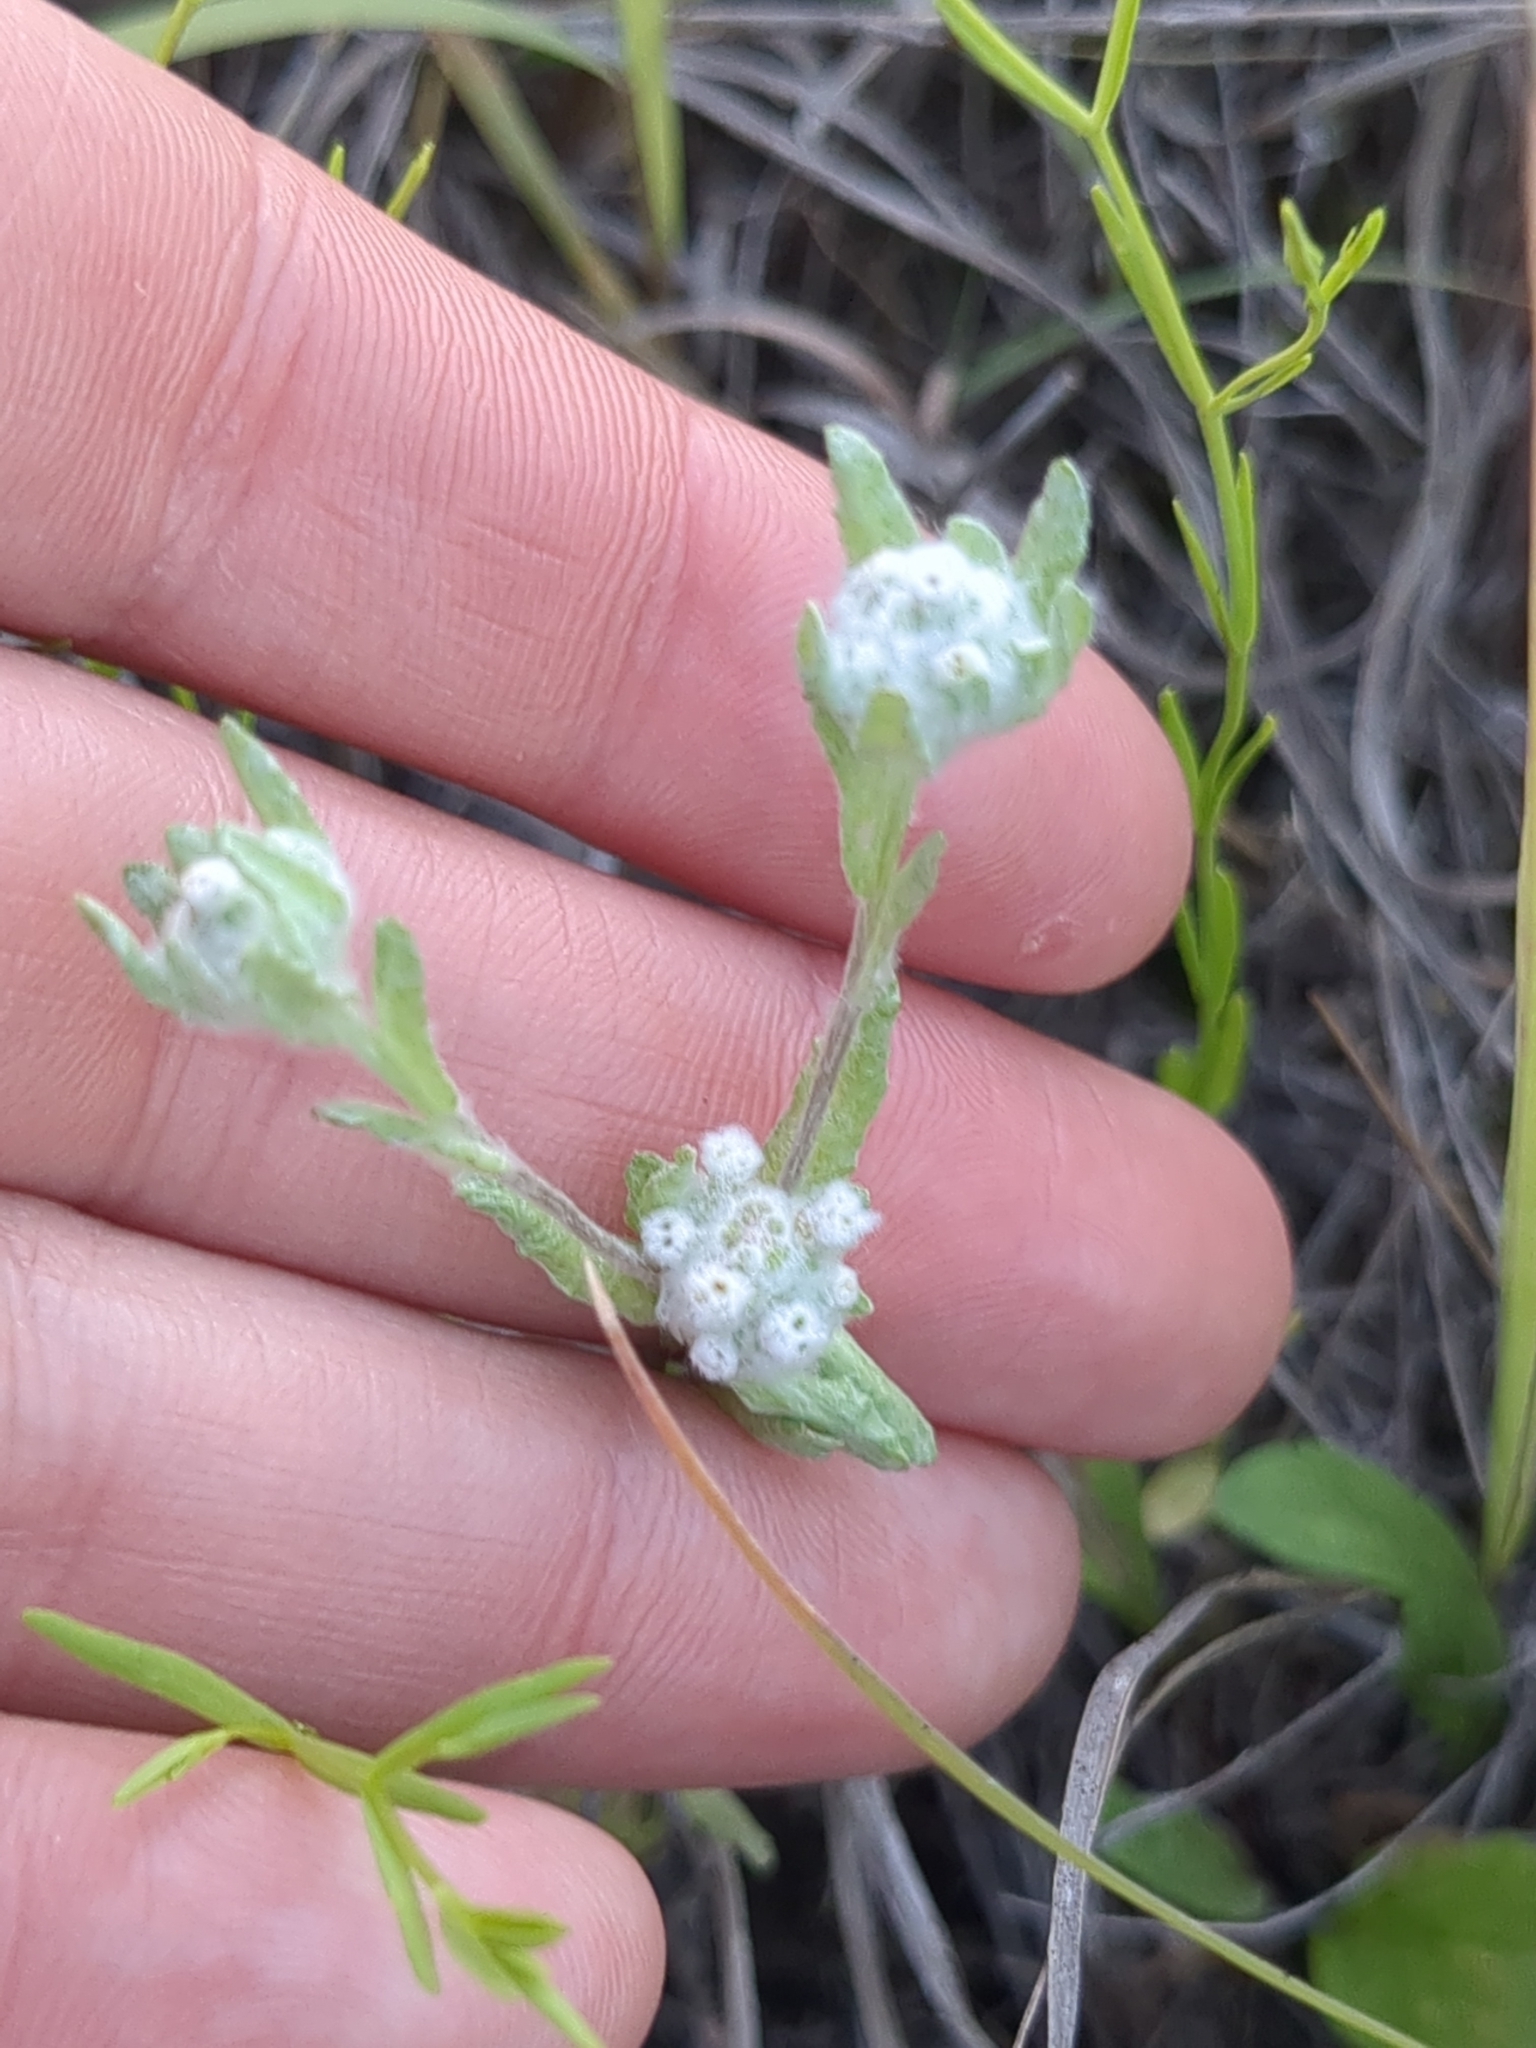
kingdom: Plantae
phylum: Tracheophyta
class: Magnoliopsida
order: Asterales
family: Asteraceae
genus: Diaperia
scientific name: Diaperia verna
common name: Many-stem rabbit-tobacco
